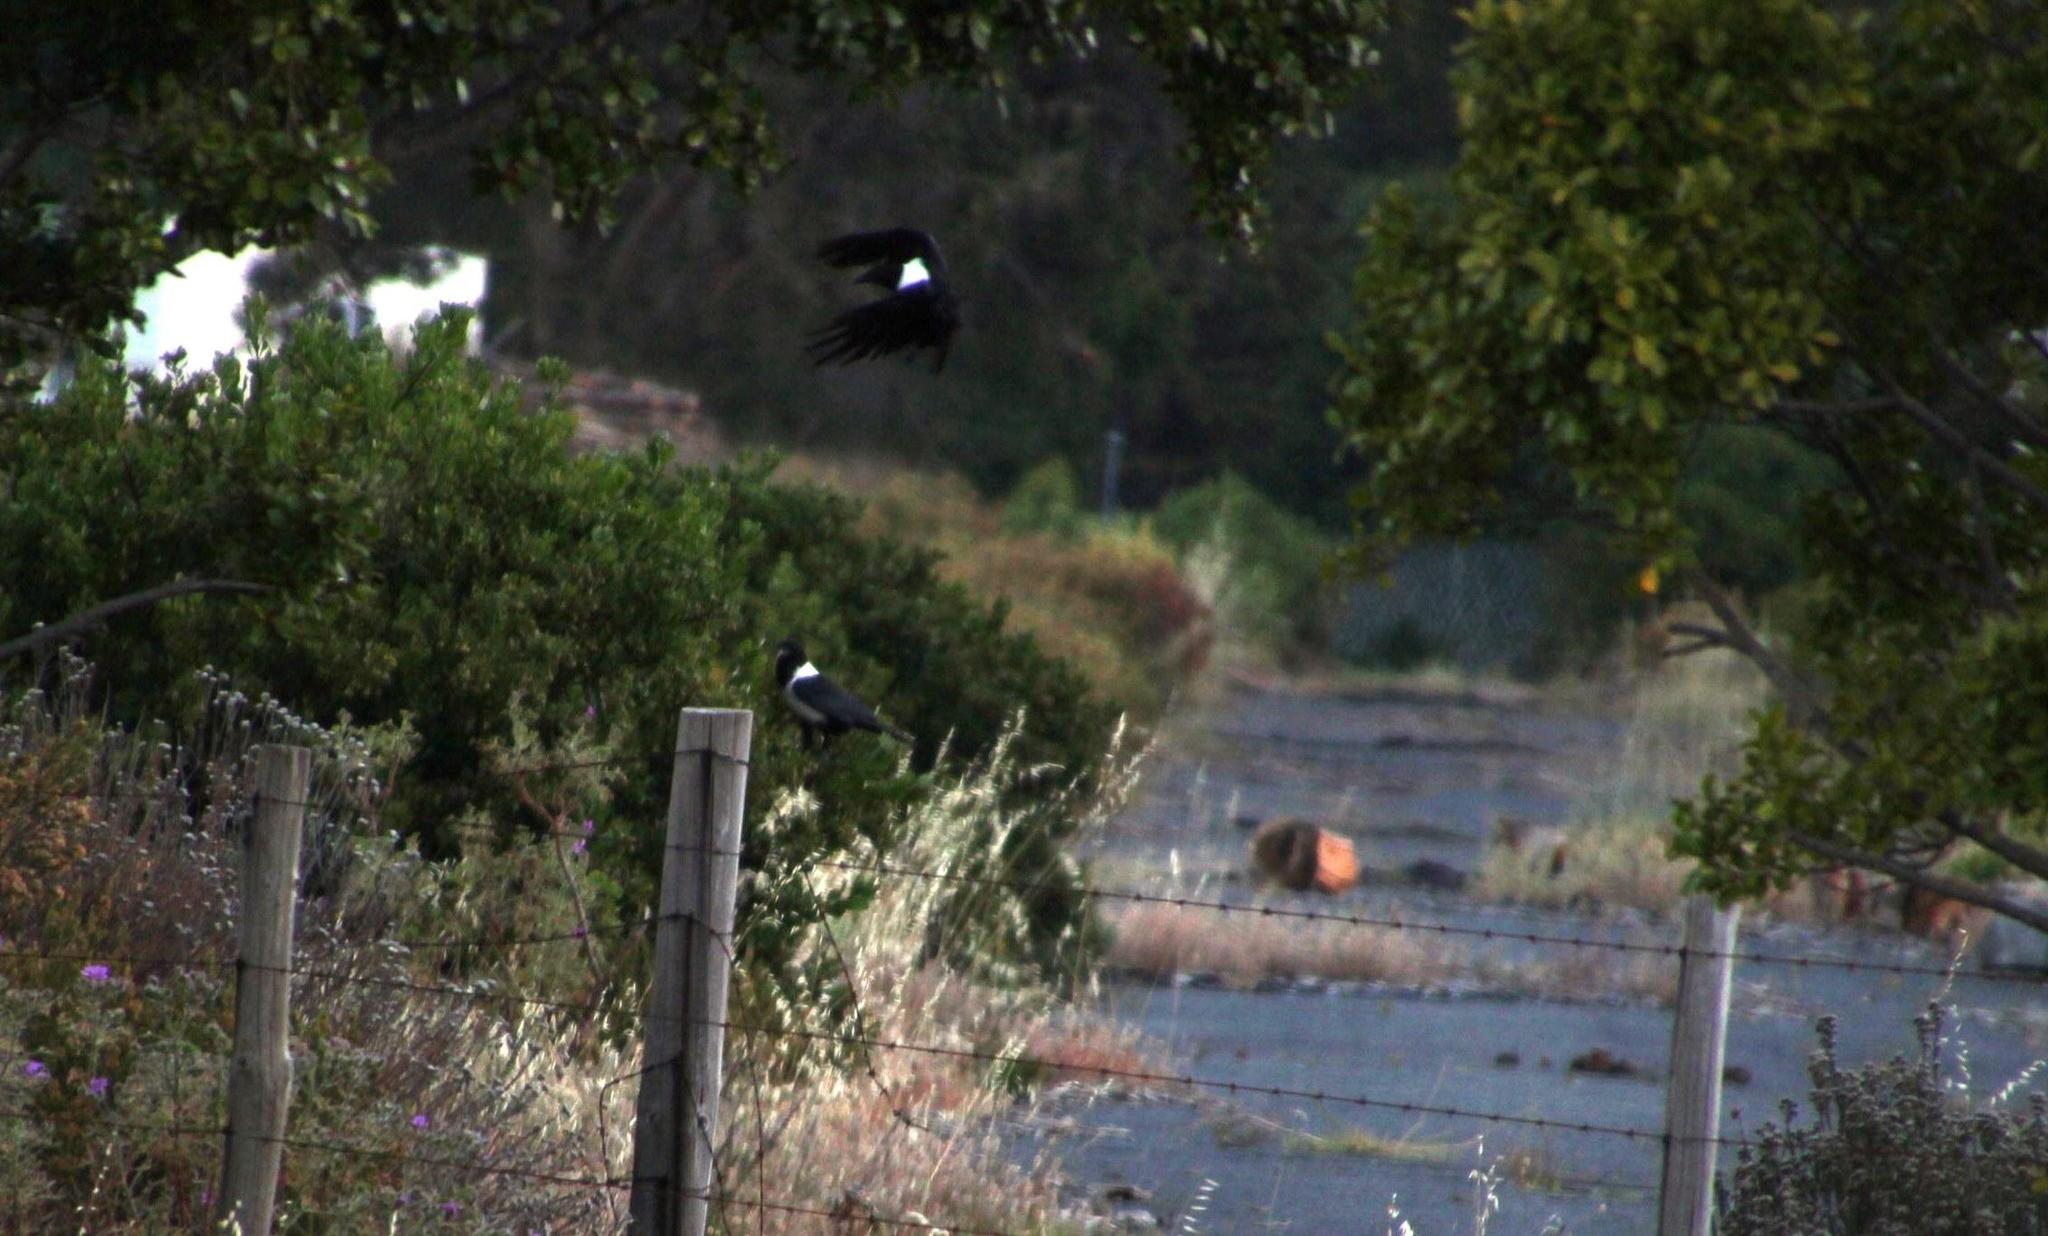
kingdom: Animalia
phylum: Chordata
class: Aves
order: Passeriformes
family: Corvidae
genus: Corvus
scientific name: Corvus albus
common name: Pied crow
